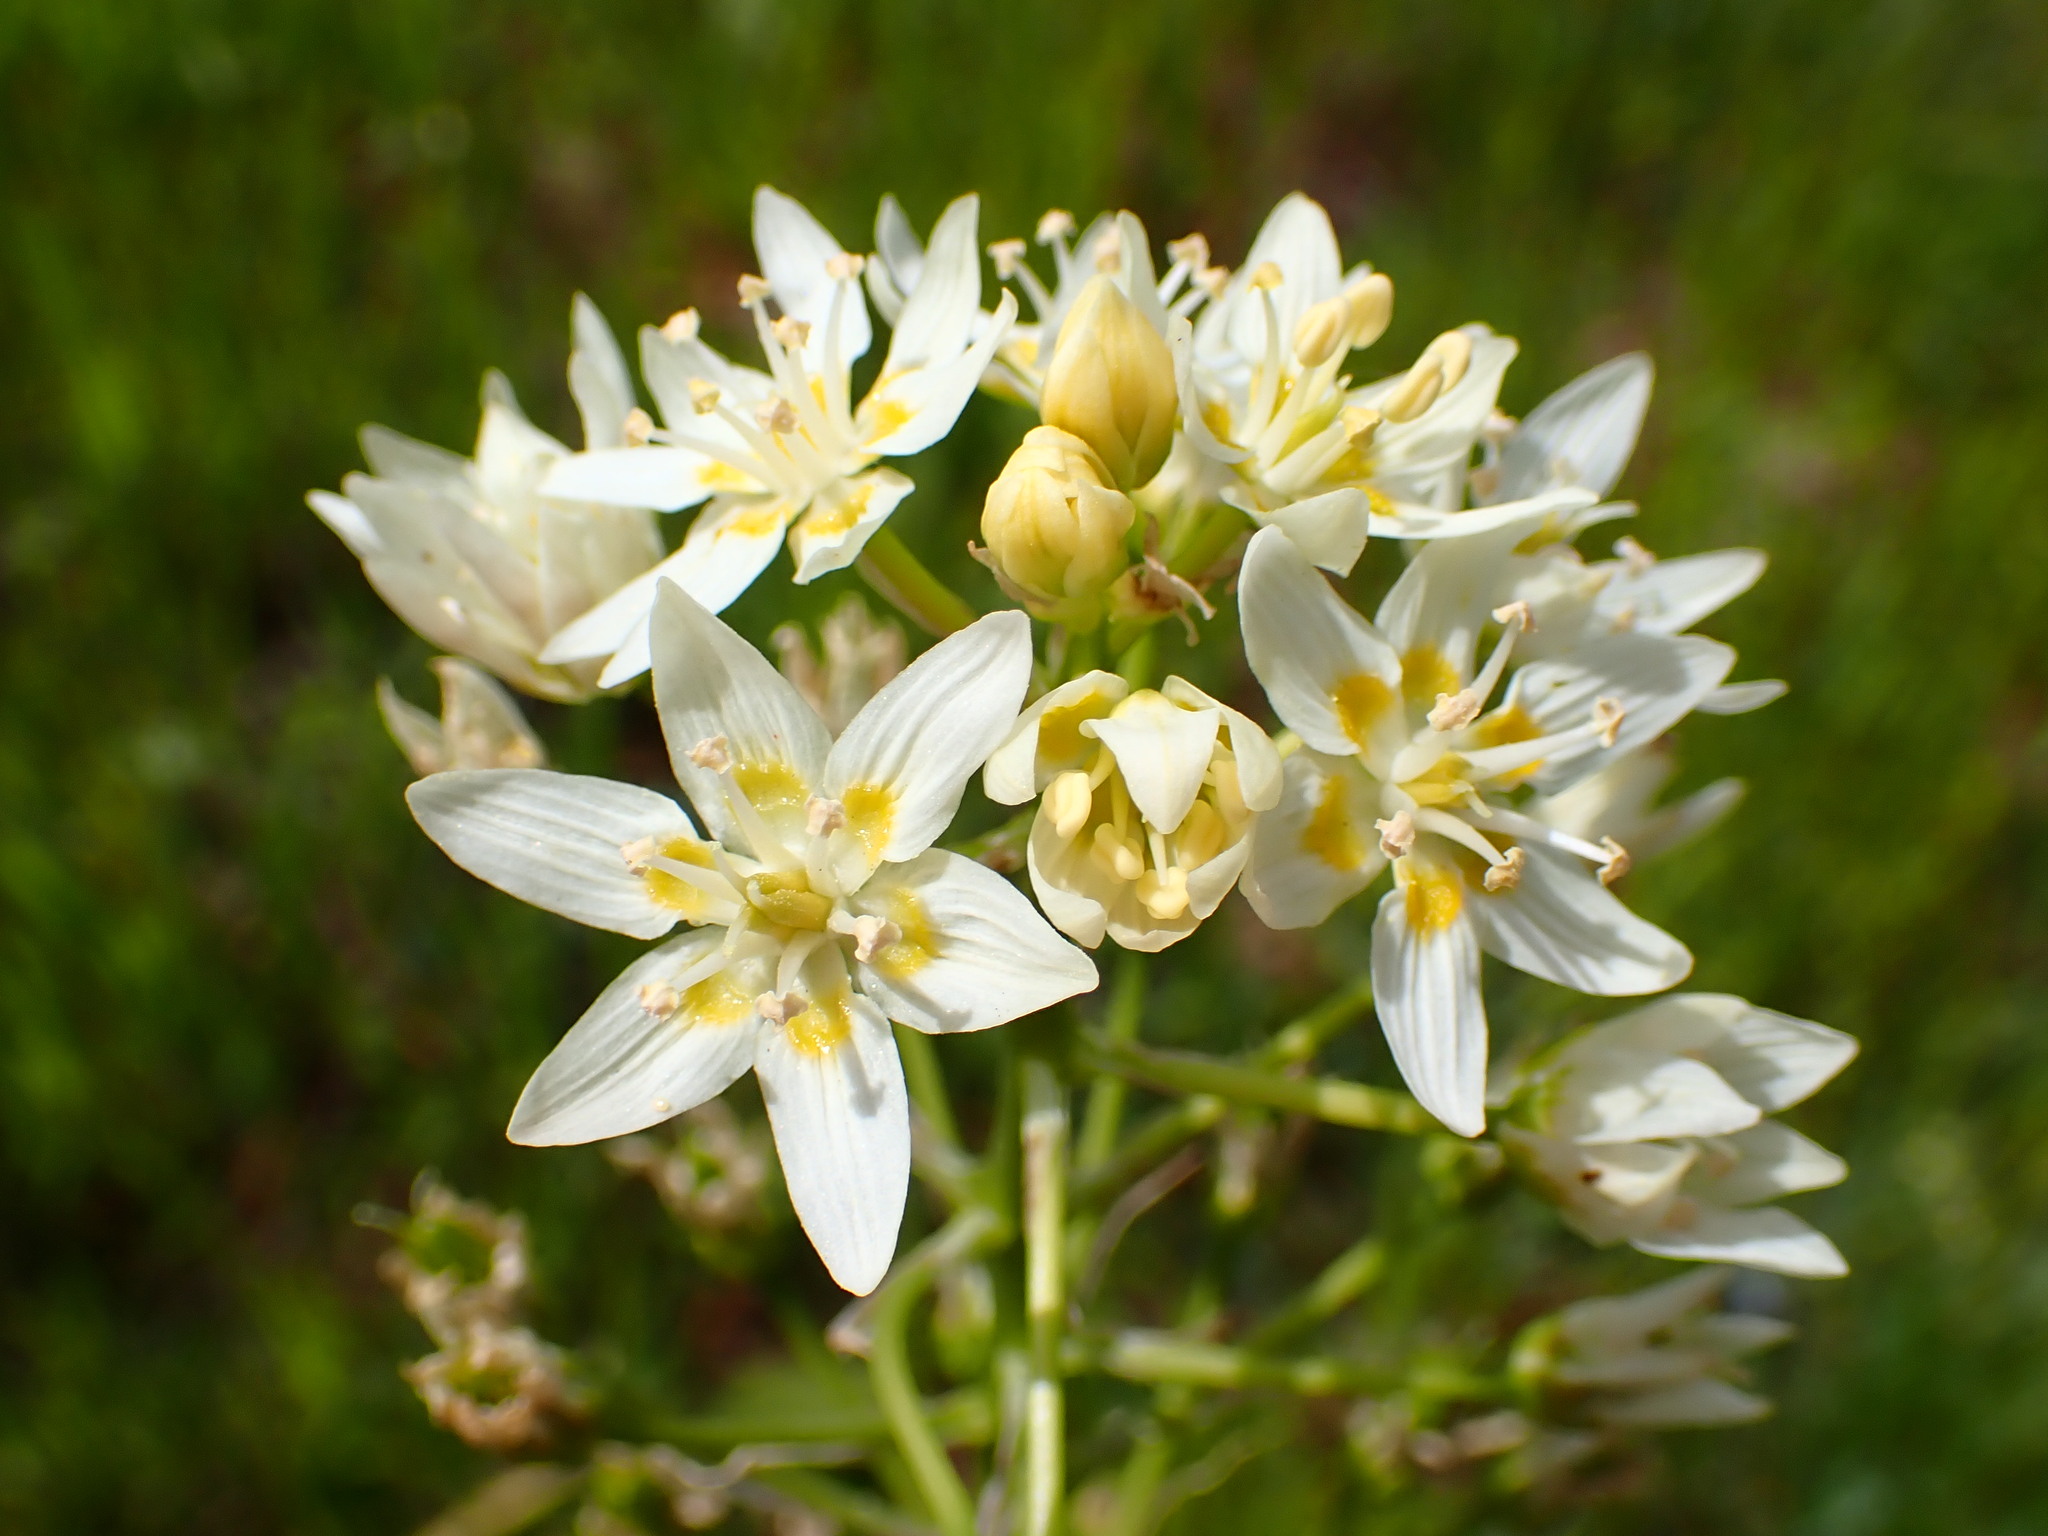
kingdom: Plantae
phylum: Tracheophyta
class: Liliopsida
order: Liliales
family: Melanthiaceae
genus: Toxicoscordion
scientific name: Toxicoscordion fremontii
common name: Fremont's death camas
